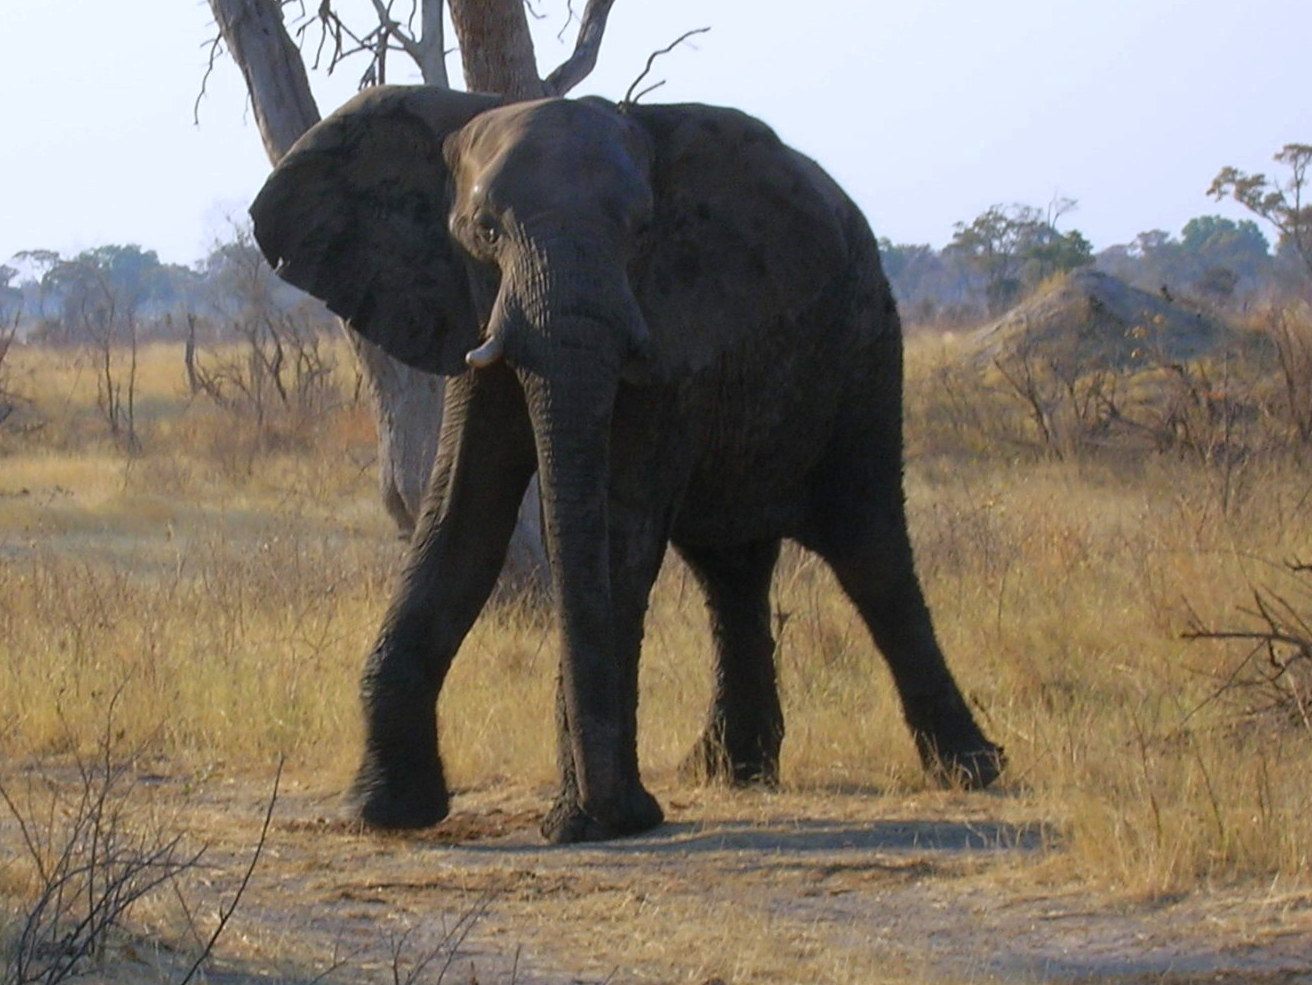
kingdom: Animalia
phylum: Chordata
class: Mammalia
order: Proboscidea
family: Elephantidae
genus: Loxodonta
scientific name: Loxodonta africana
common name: African elephant
